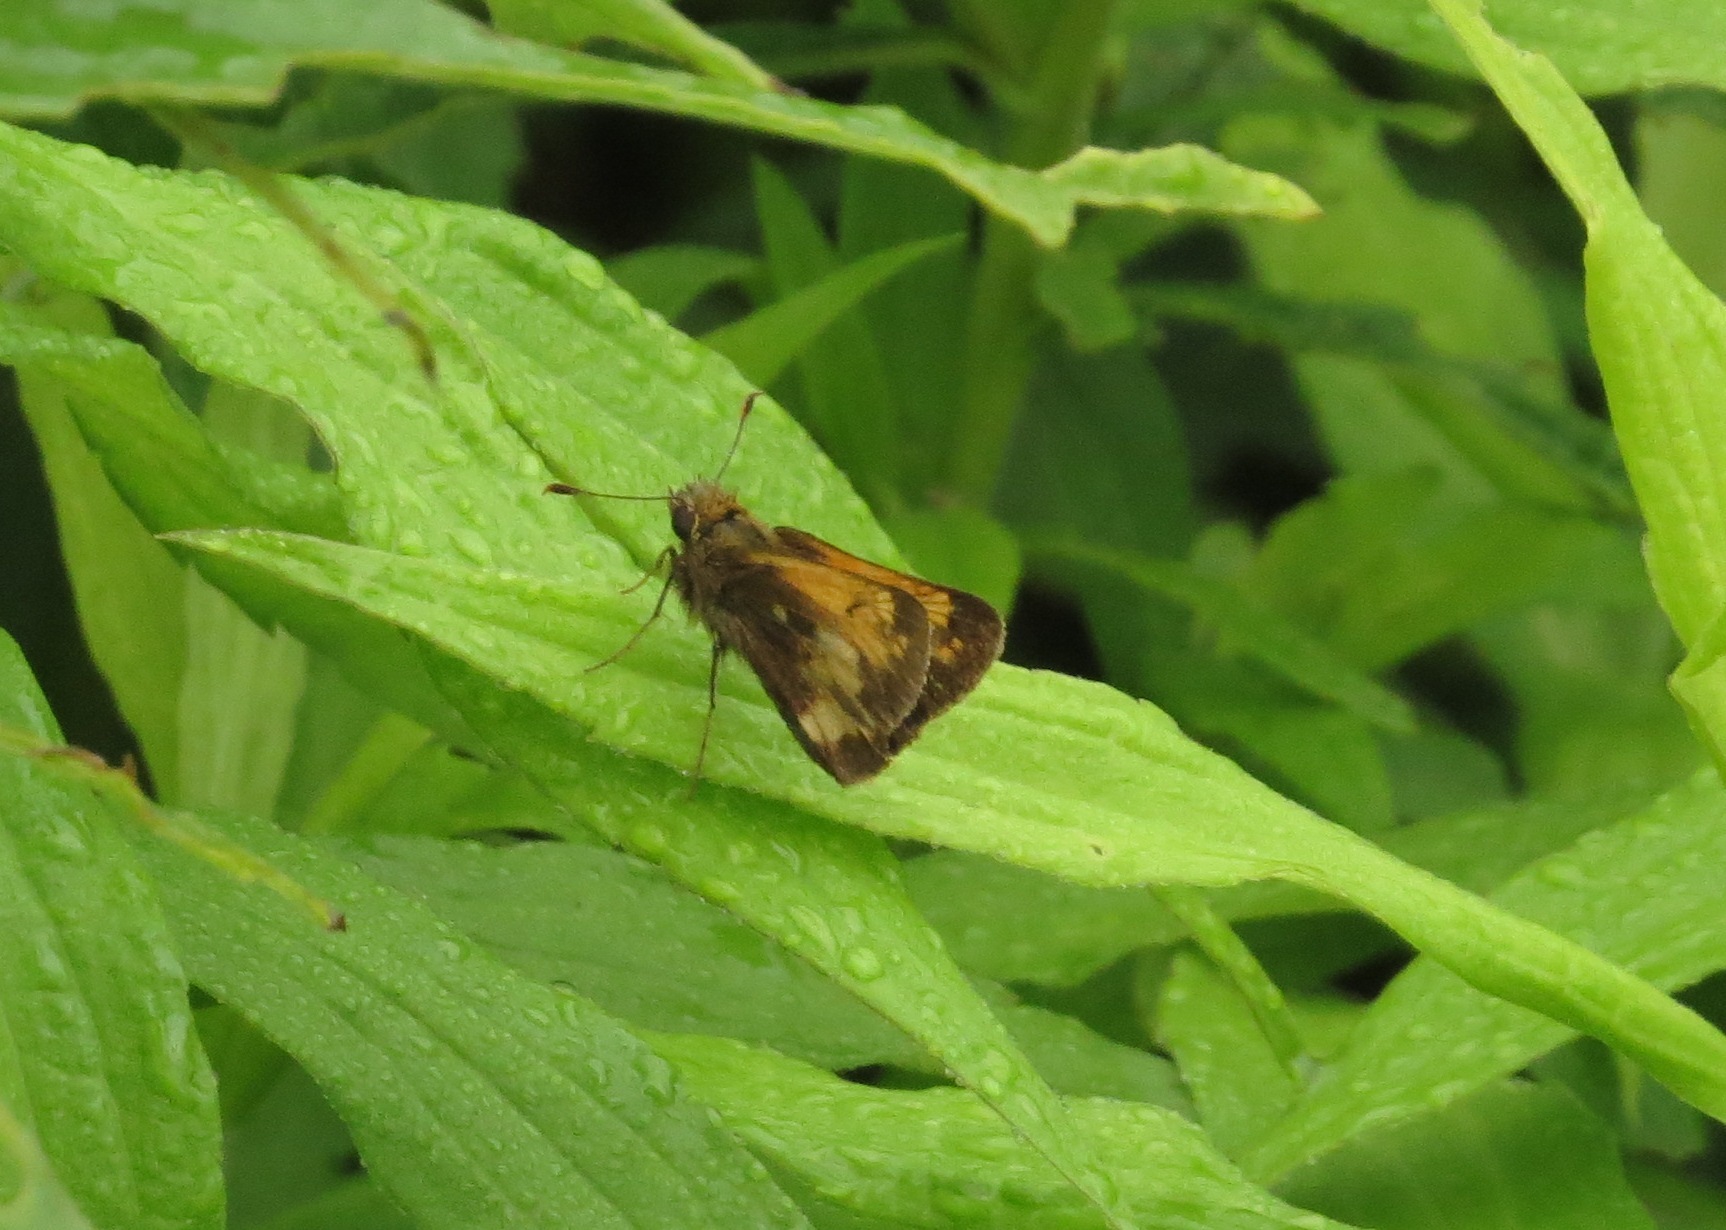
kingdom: Animalia
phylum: Arthropoda
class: Insecta
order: Lepidoptera
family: Hesperiidae
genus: Lon
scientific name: Lon hobomok
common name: Hobomok skipper
